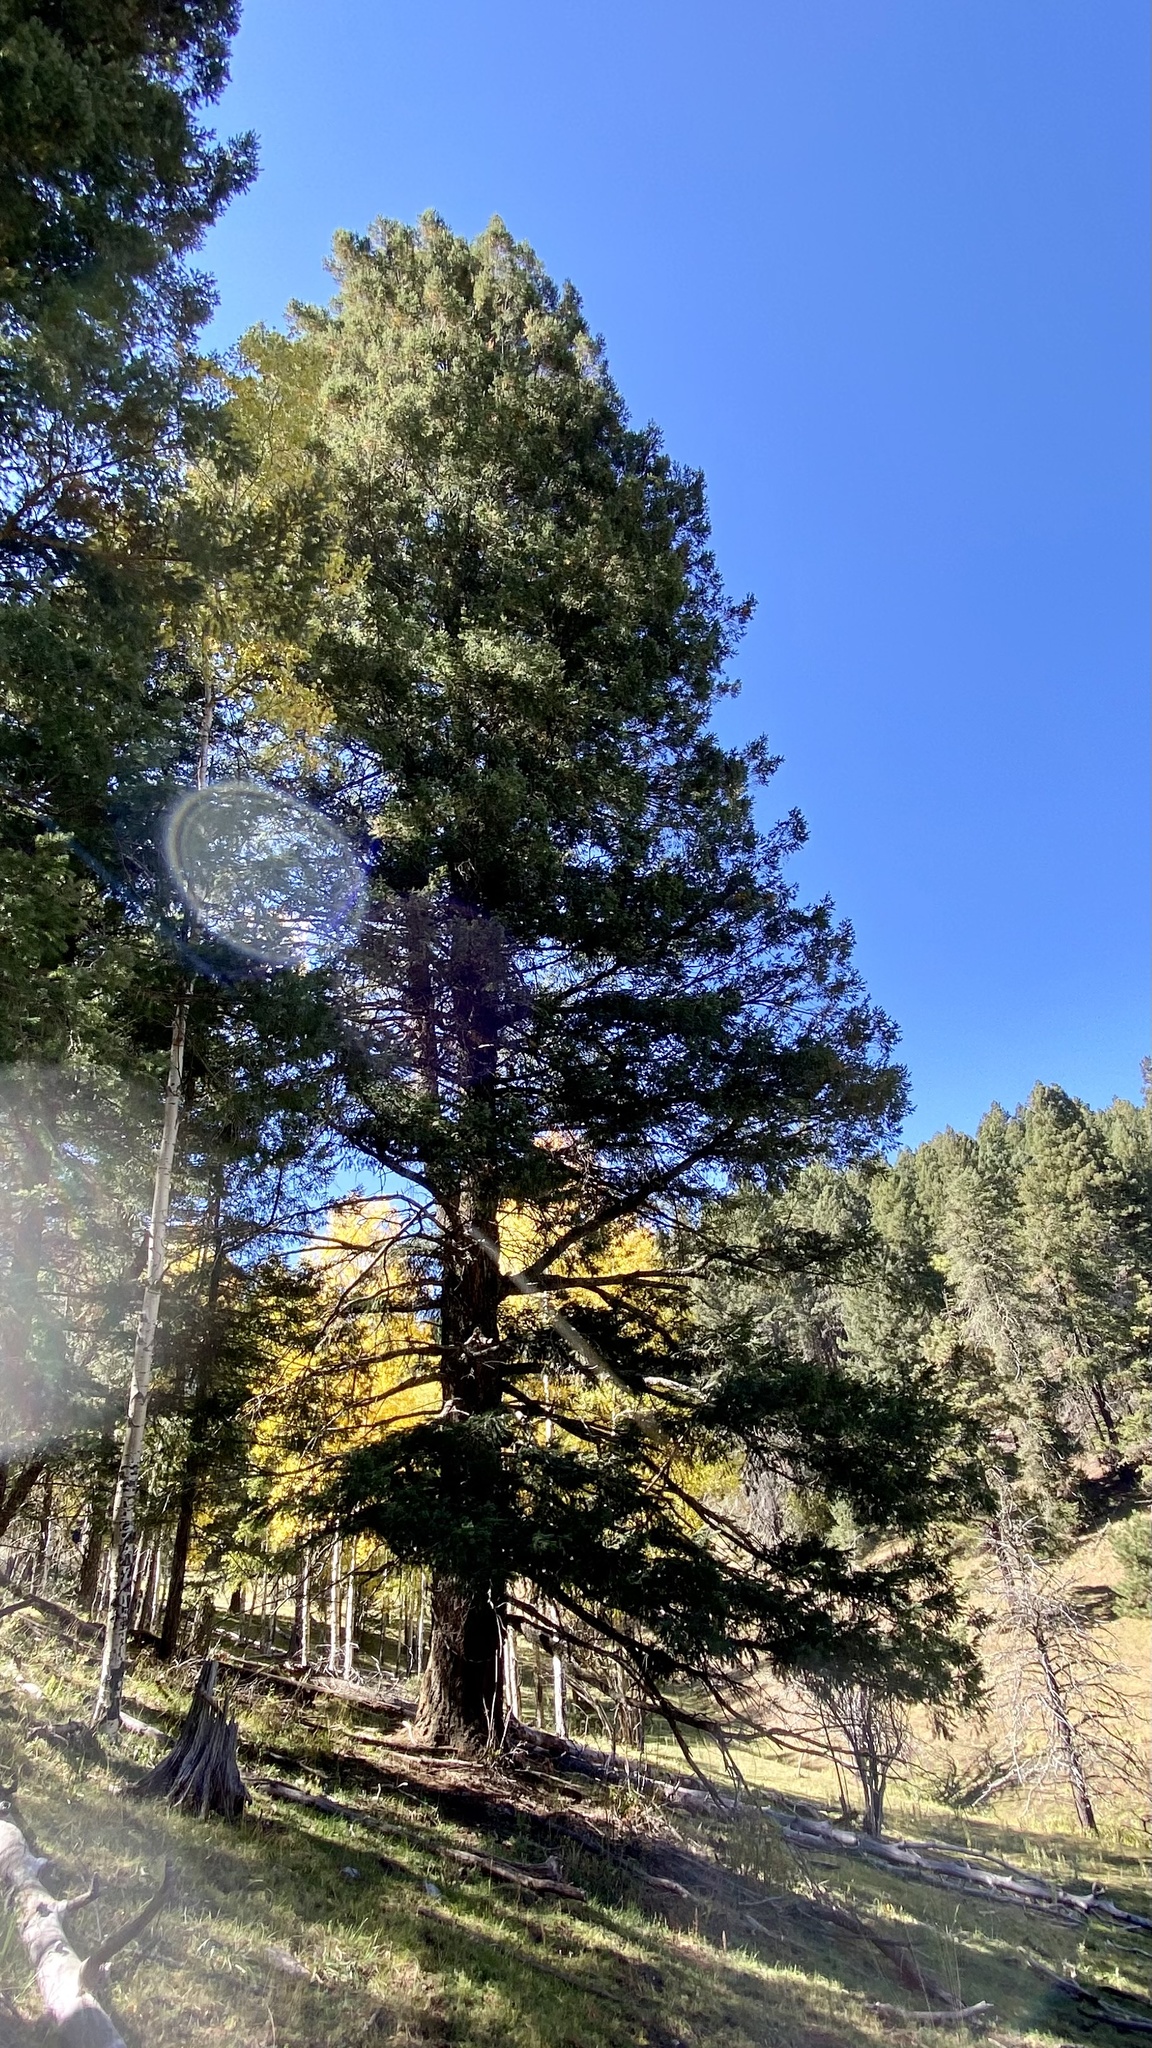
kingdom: Plantae
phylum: Tracheophyta
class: Pinopsida
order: Pinales
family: Pinaceae
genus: Pseudotsuga
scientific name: Pseudotsuga menziesii
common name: Douglas fir
